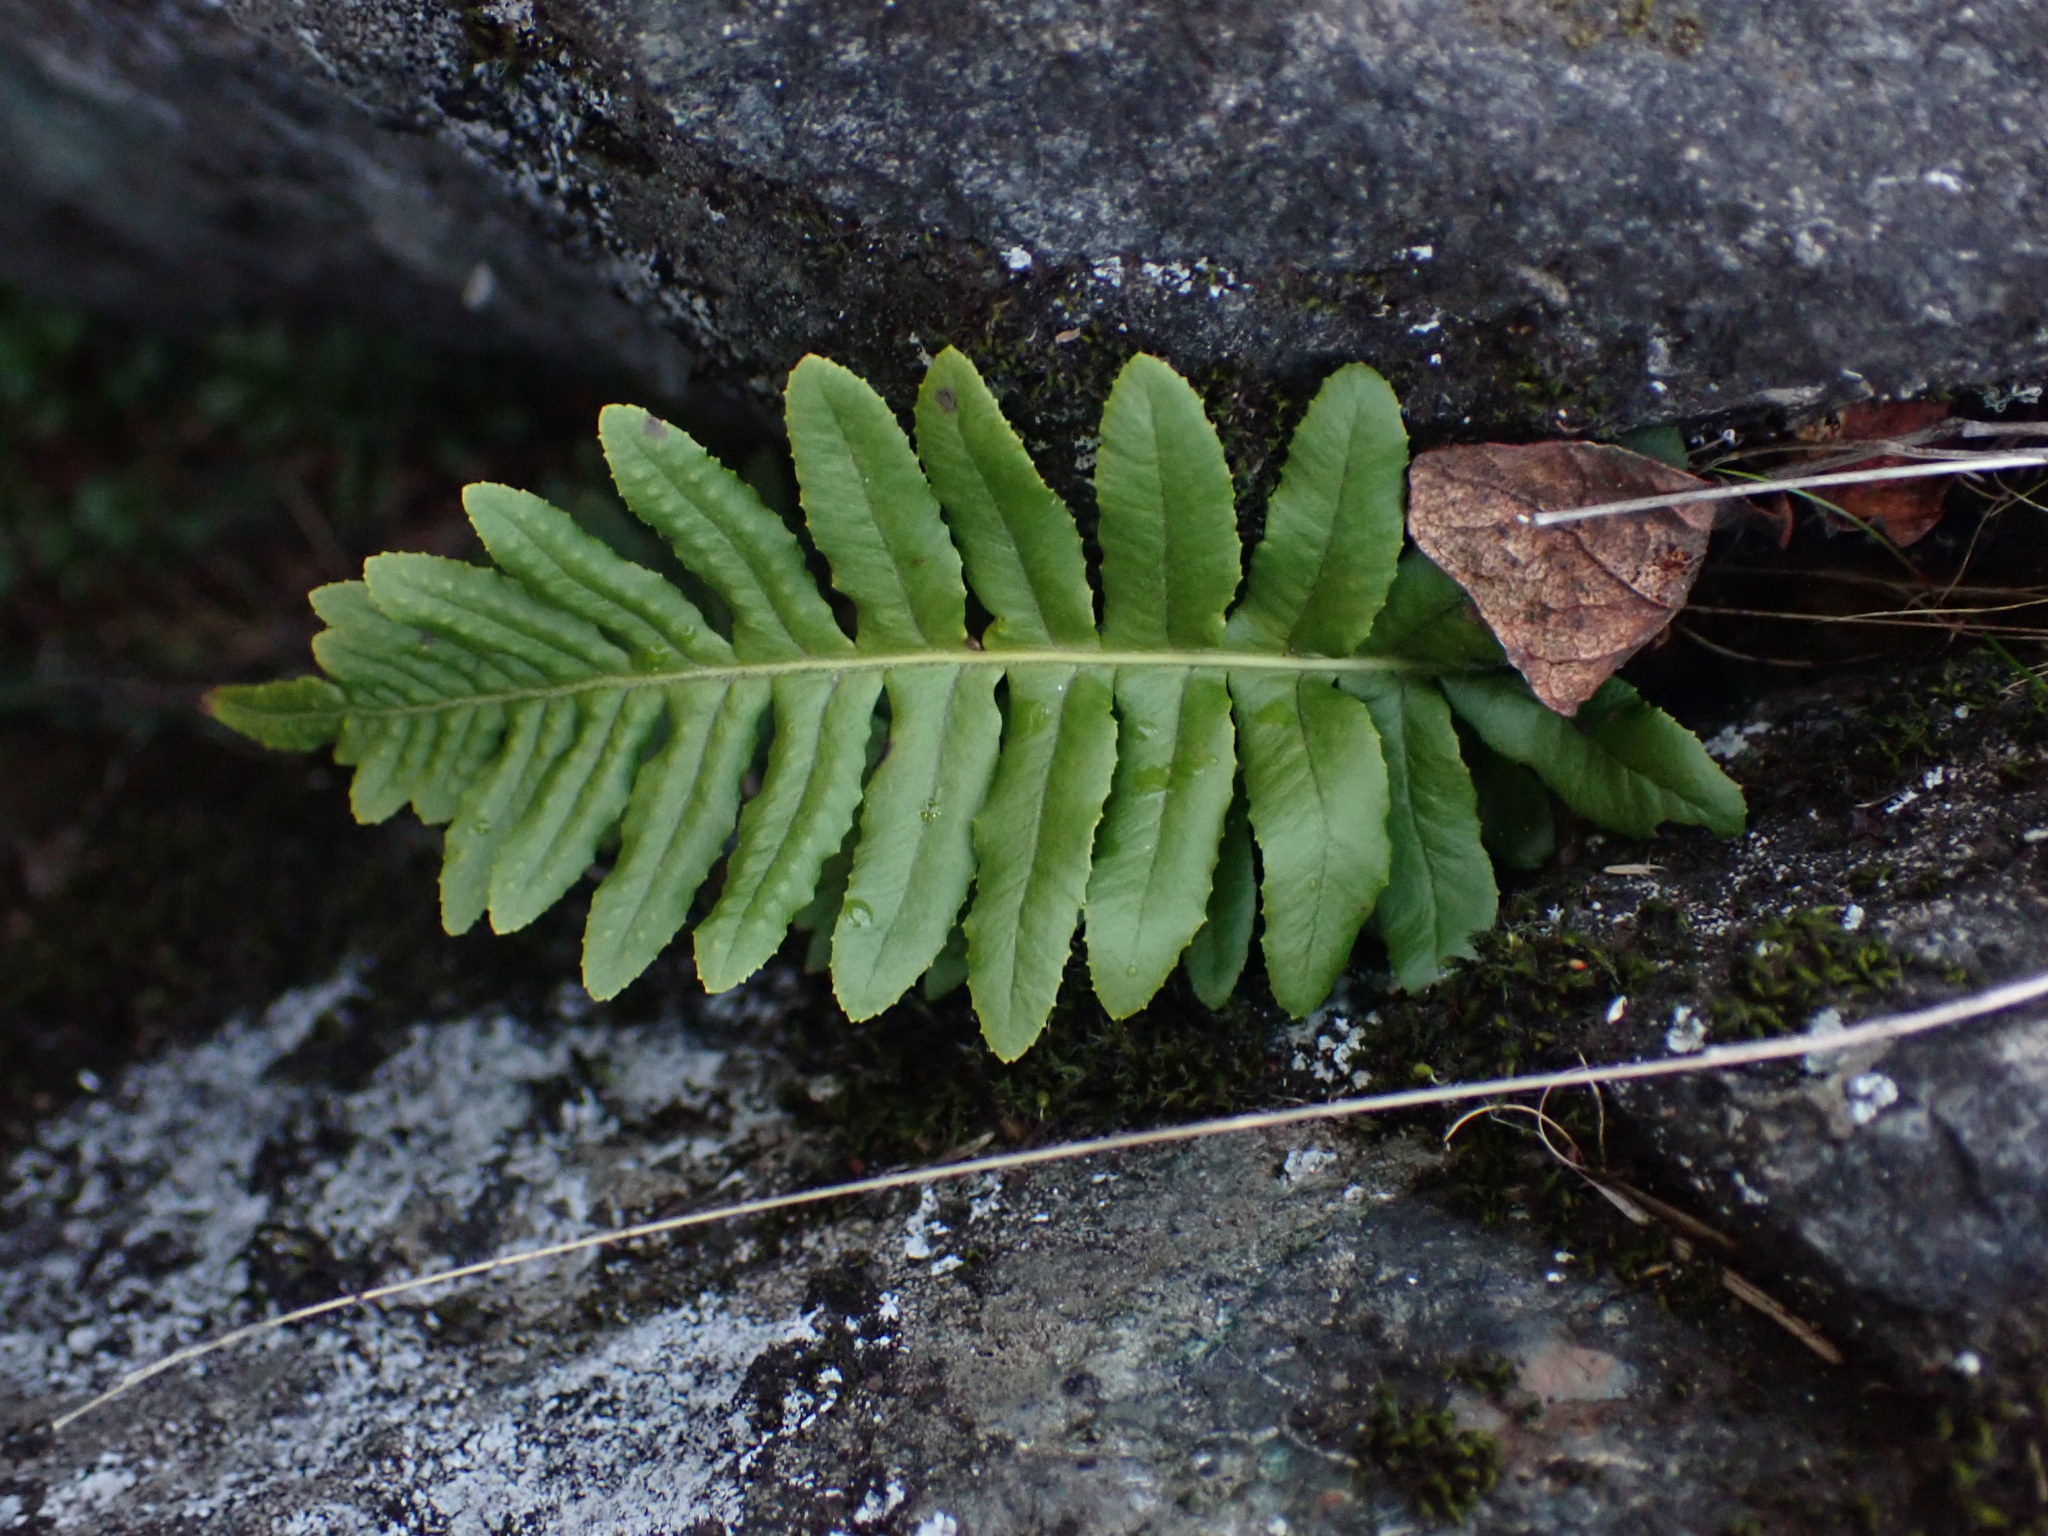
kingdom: Plantae
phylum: Tracheophyta
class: Polypodiopsida
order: Polypodiales
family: Polypodiaceae
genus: Polypodium
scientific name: Polypodium glycyrrhiza
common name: Licorice fern
